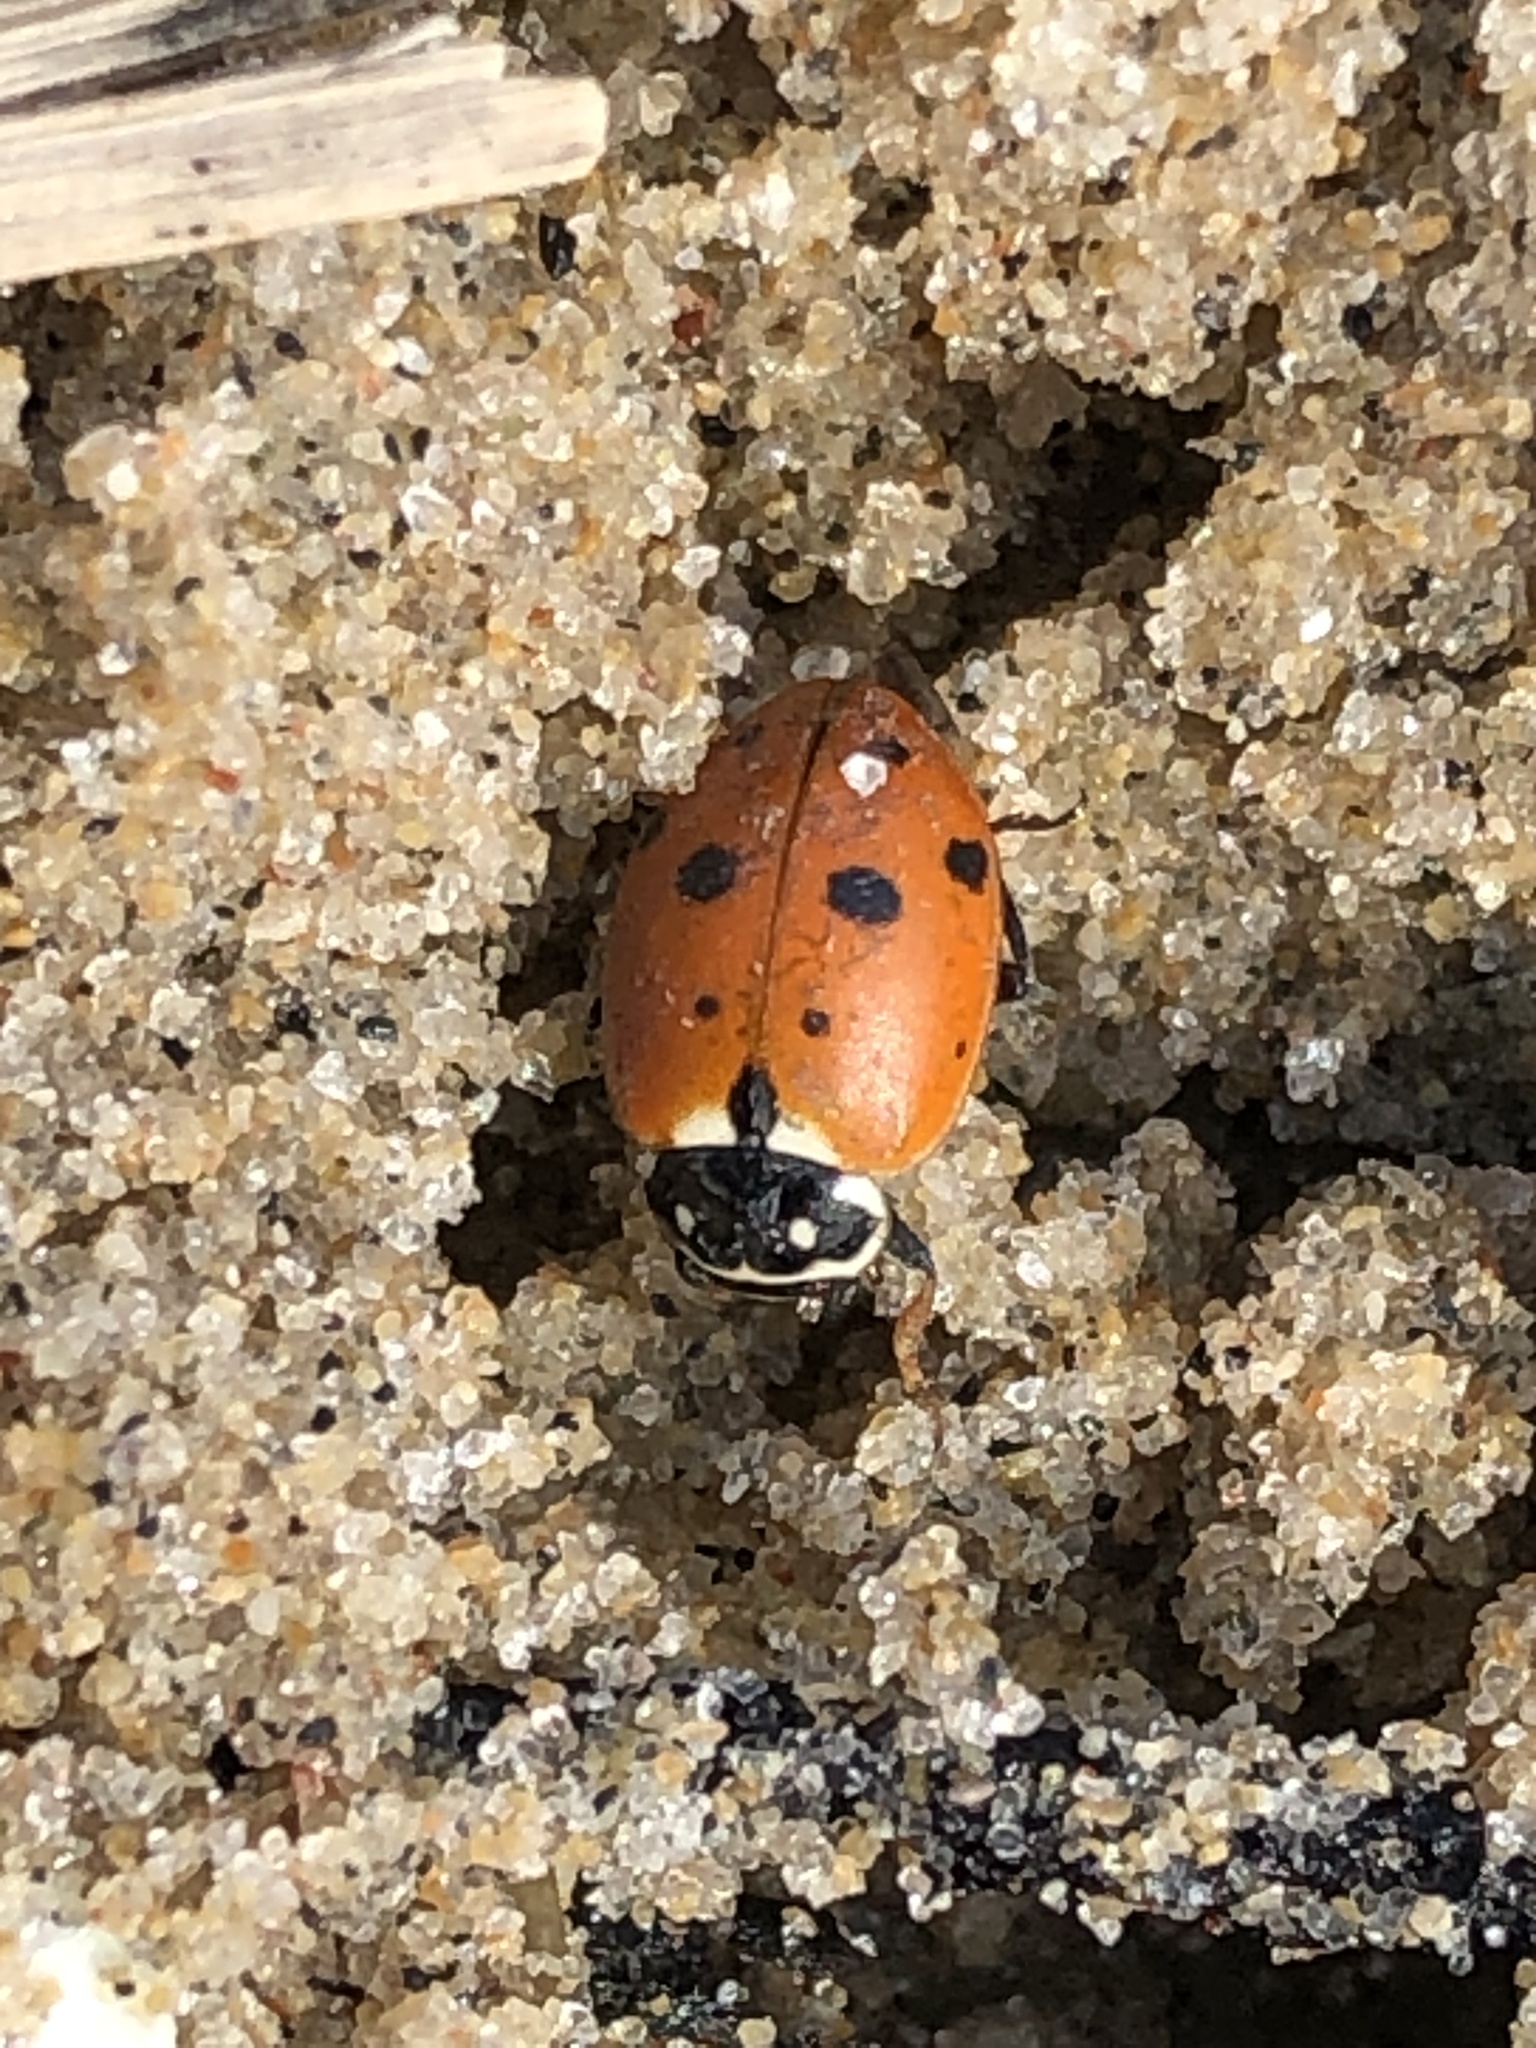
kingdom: Animalia
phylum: Arthropoda
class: Insecta
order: Coleoptera
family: Coccinellidae
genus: Hippodamia
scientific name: Hippodamia variegata
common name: Ladybird beetle
